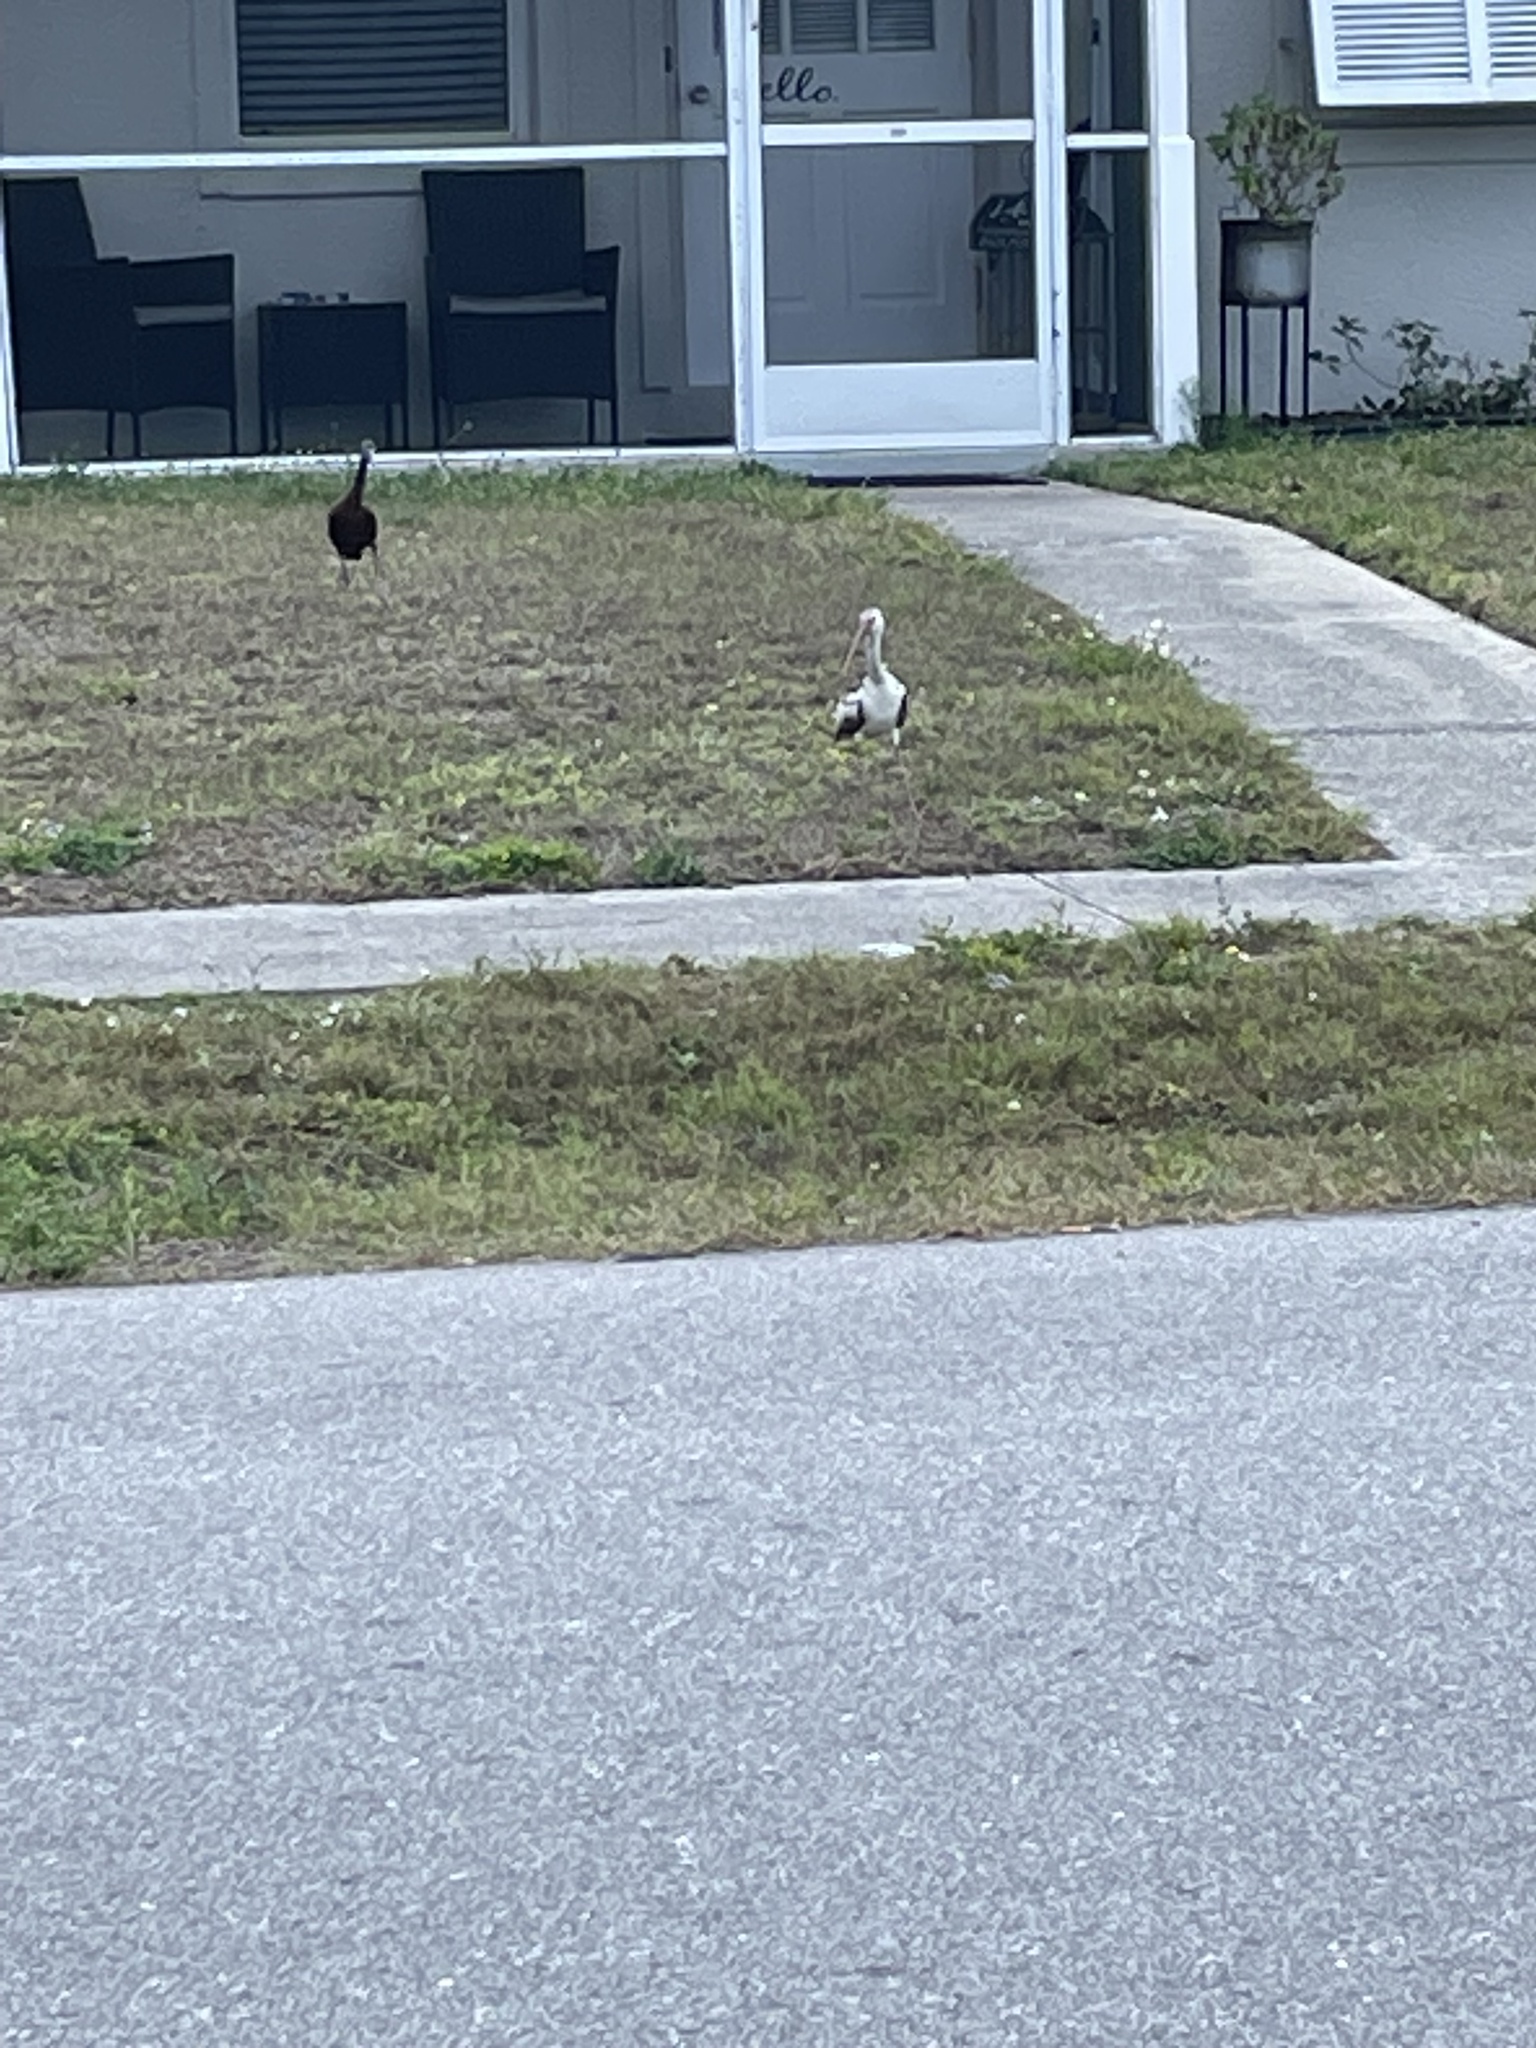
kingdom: Animalia
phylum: Chordata
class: Aves
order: Pelecaniformes
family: Threskiornithidae
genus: Plegadis
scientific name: Plegadis falcinellus
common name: Glossy ibis
